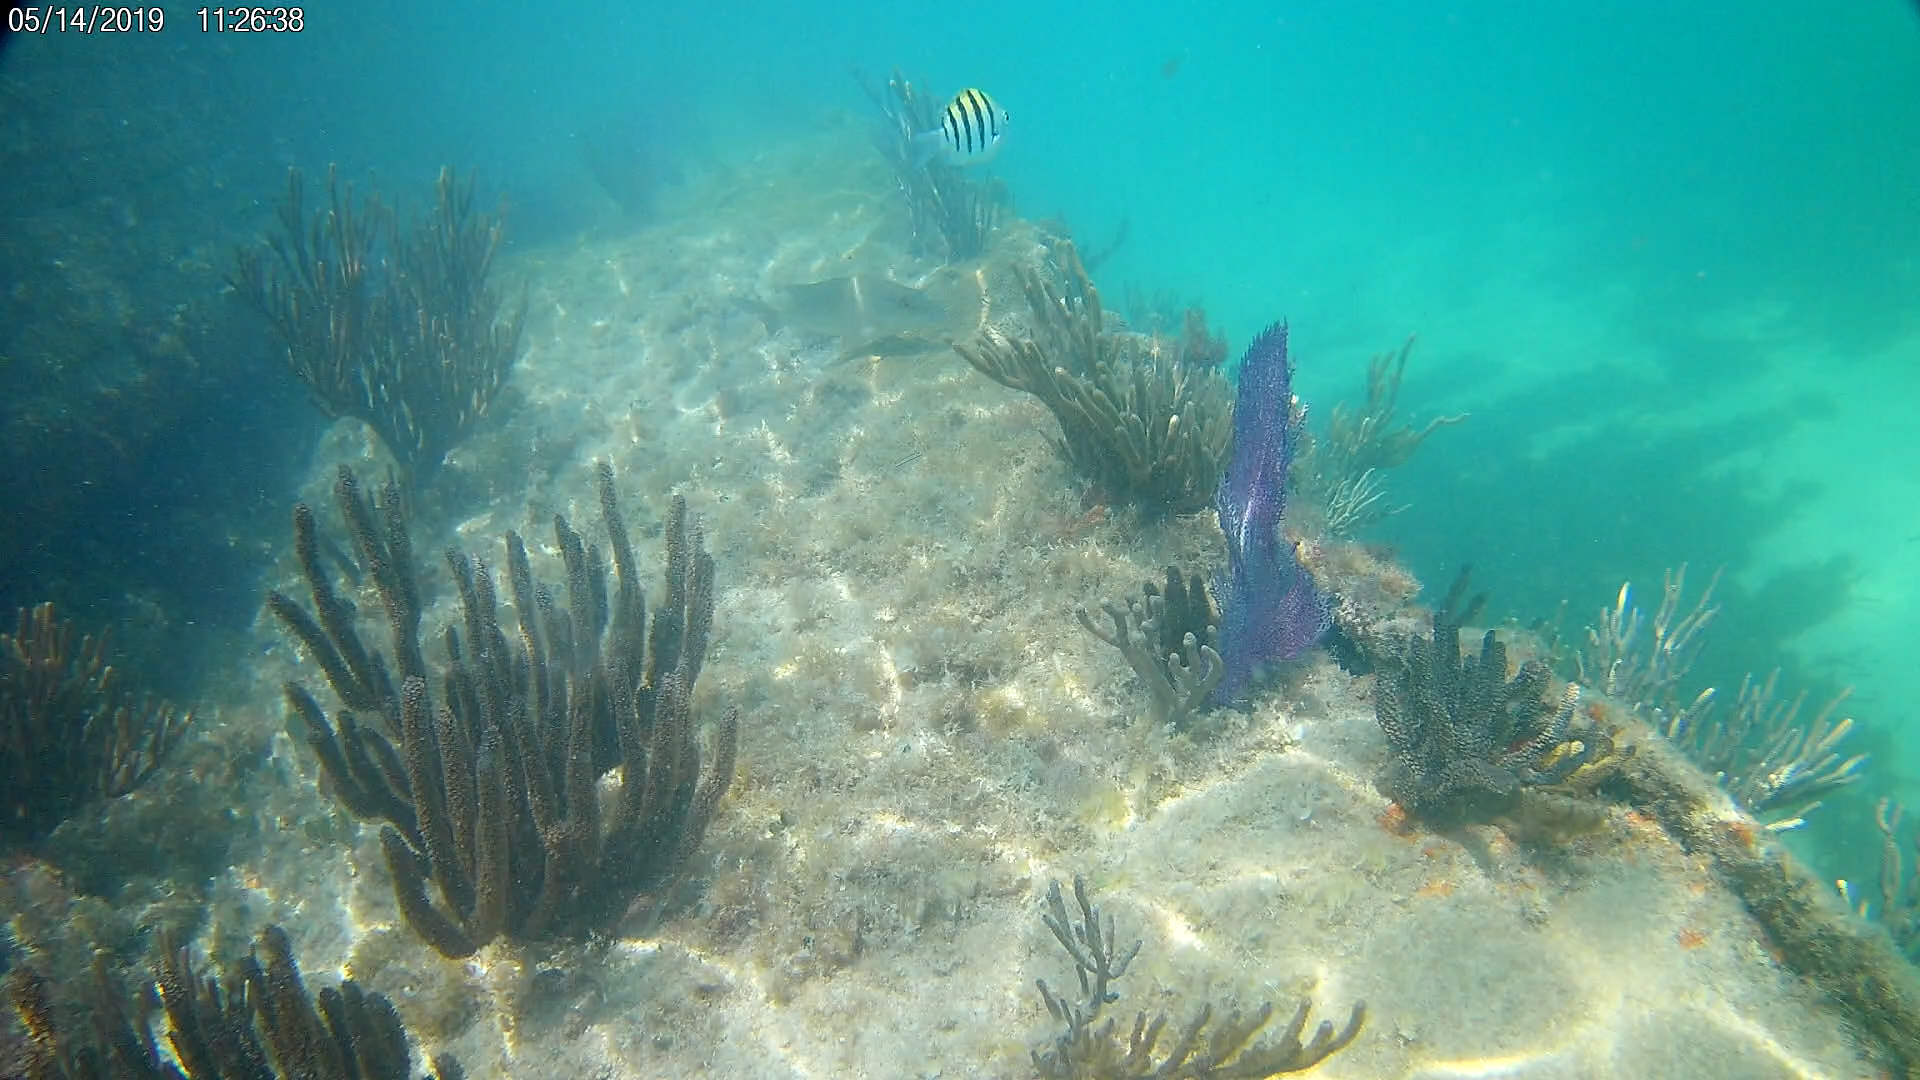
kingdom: Animalia
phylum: Chordata
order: Perciformes
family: Pomacentridae
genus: Abudefduf
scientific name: Abudefduf saxatilis
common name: Sergeant major
